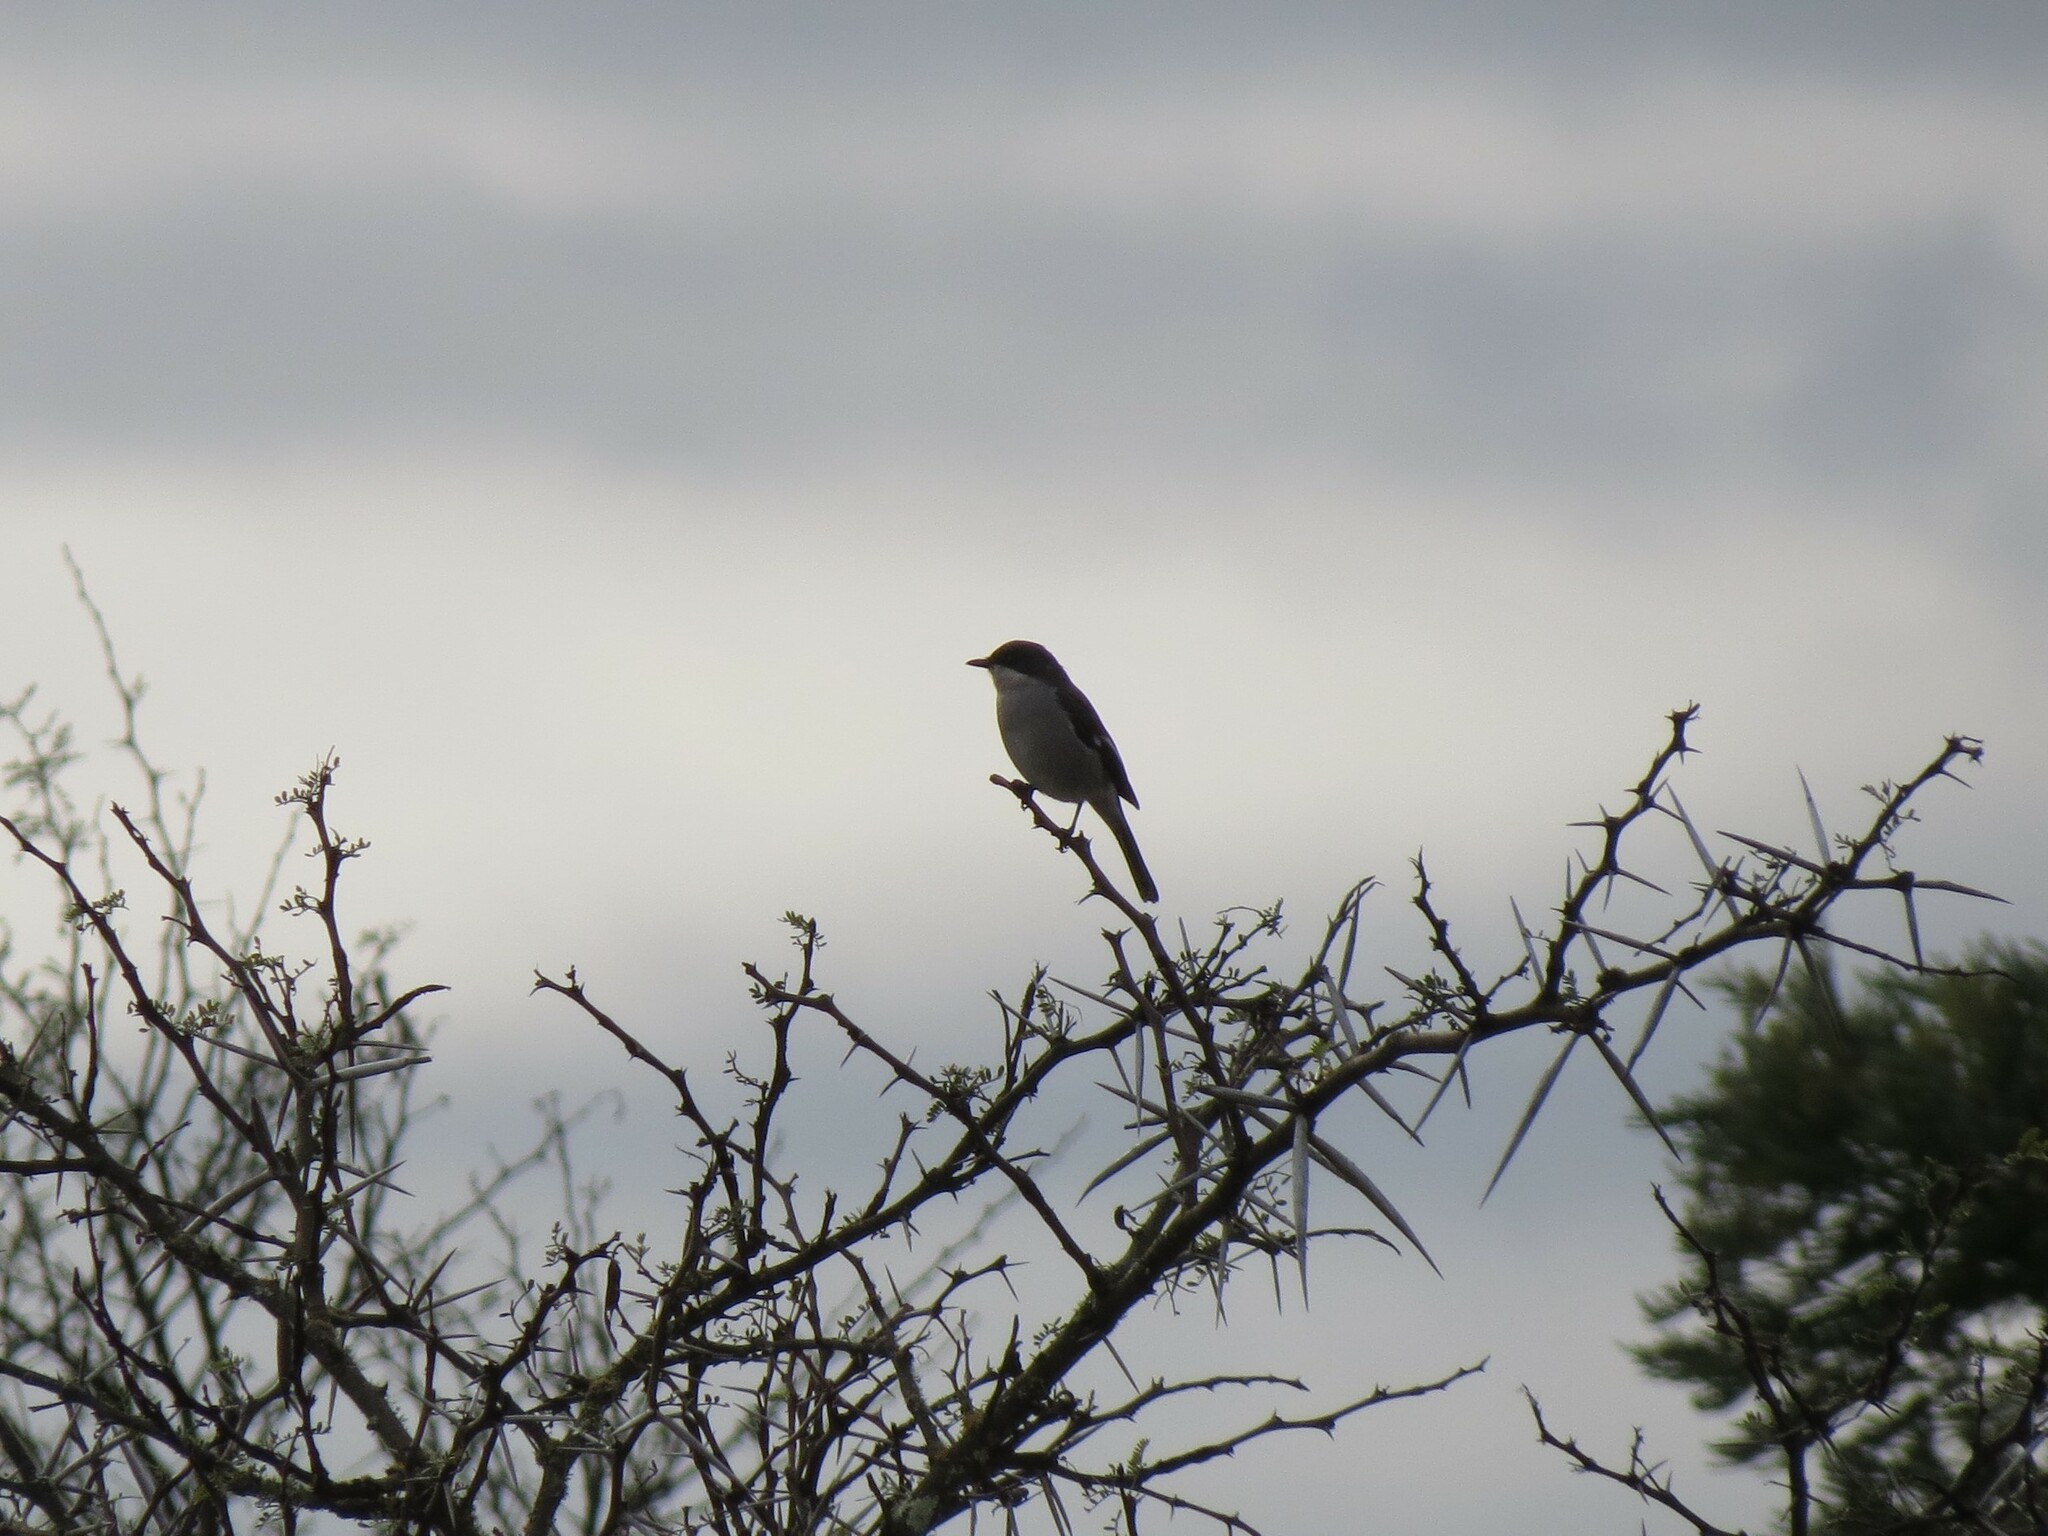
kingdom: Animalia
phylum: Chordata
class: Aves
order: Passeriformes
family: Muscicapidae
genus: Sigelus
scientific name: Sigelus silens
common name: Fiscal flycatcher
